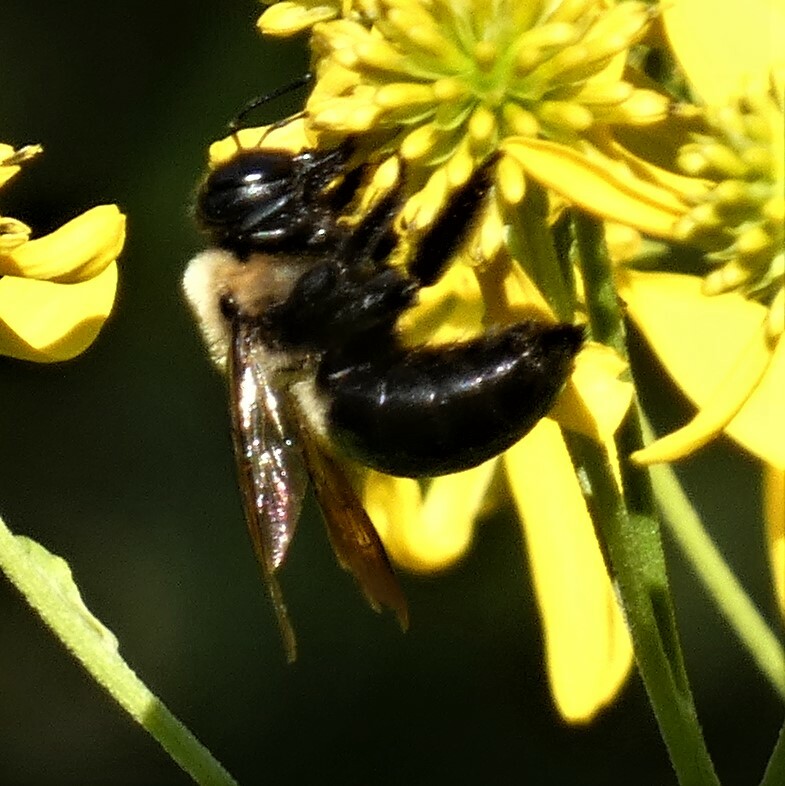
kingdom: Animalia
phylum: Arthropoda
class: Insecta
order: Hymenoptera
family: Apidae
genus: Xylocopa
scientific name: Xylocopa virginica
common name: Carpenter bee
